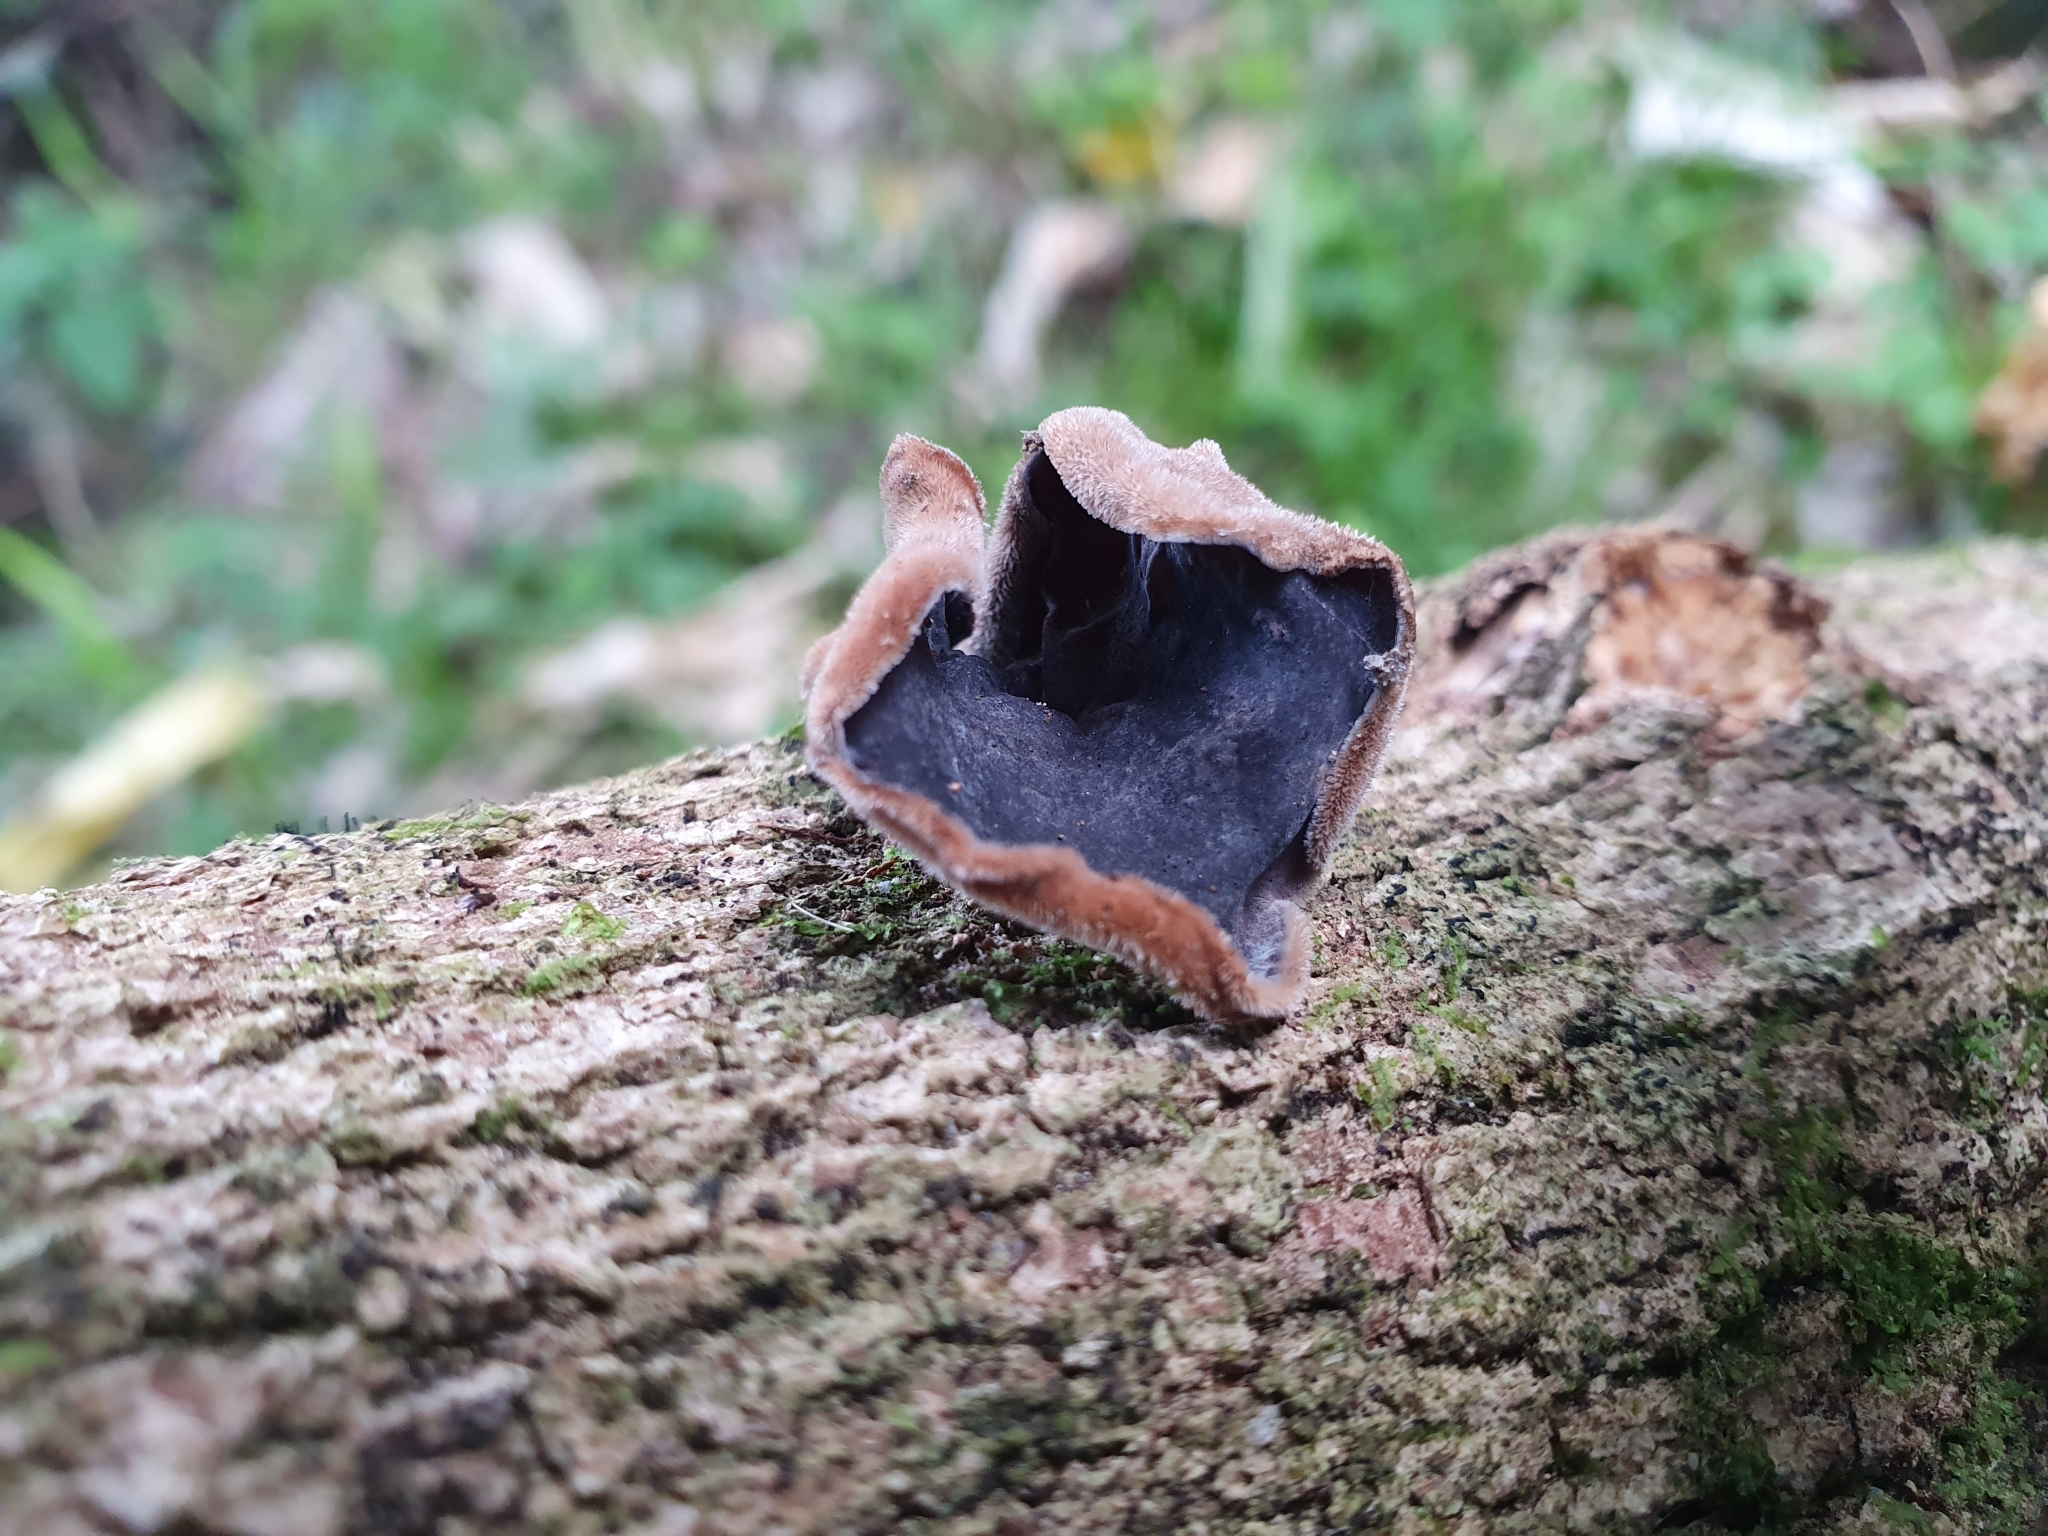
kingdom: Fungi
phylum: Basidiomycota
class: Agaricomycetes
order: Auriculariales
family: Auriculariaceae
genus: Auricularia
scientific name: Auricularia cornea
